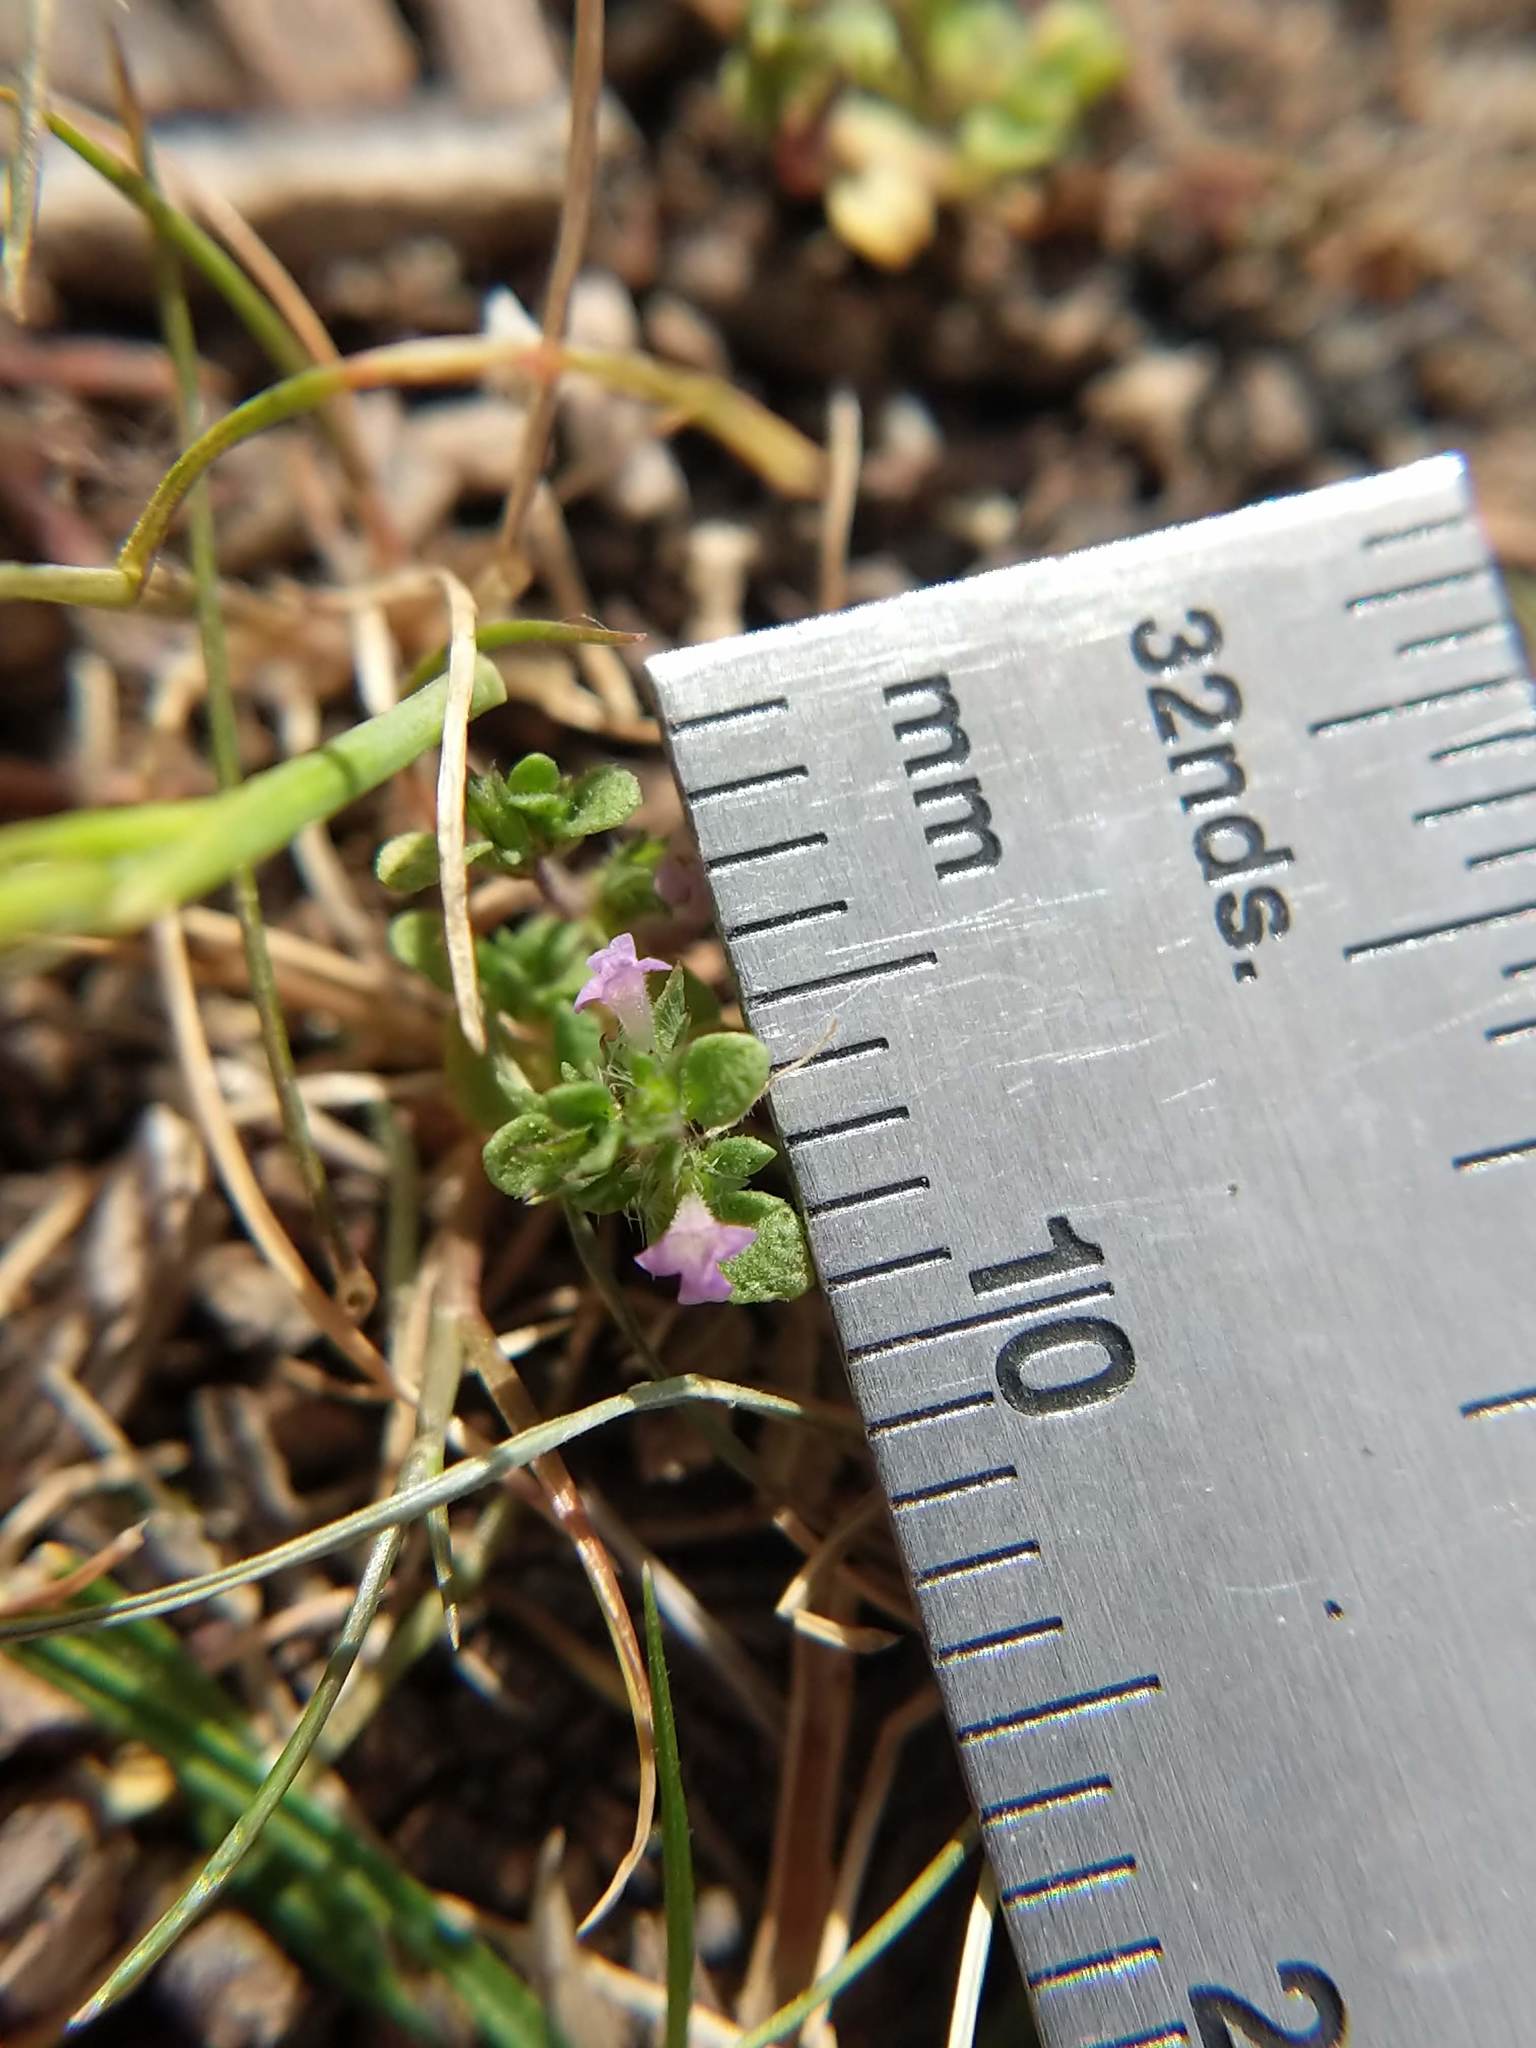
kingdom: Plantae
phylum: Tracheophyta
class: Magnoliopsida
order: Lamiales
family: Lamiaceae
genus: Pogogyne
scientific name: Pogogyne serpylloides
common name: Thymeleaf mesamint
